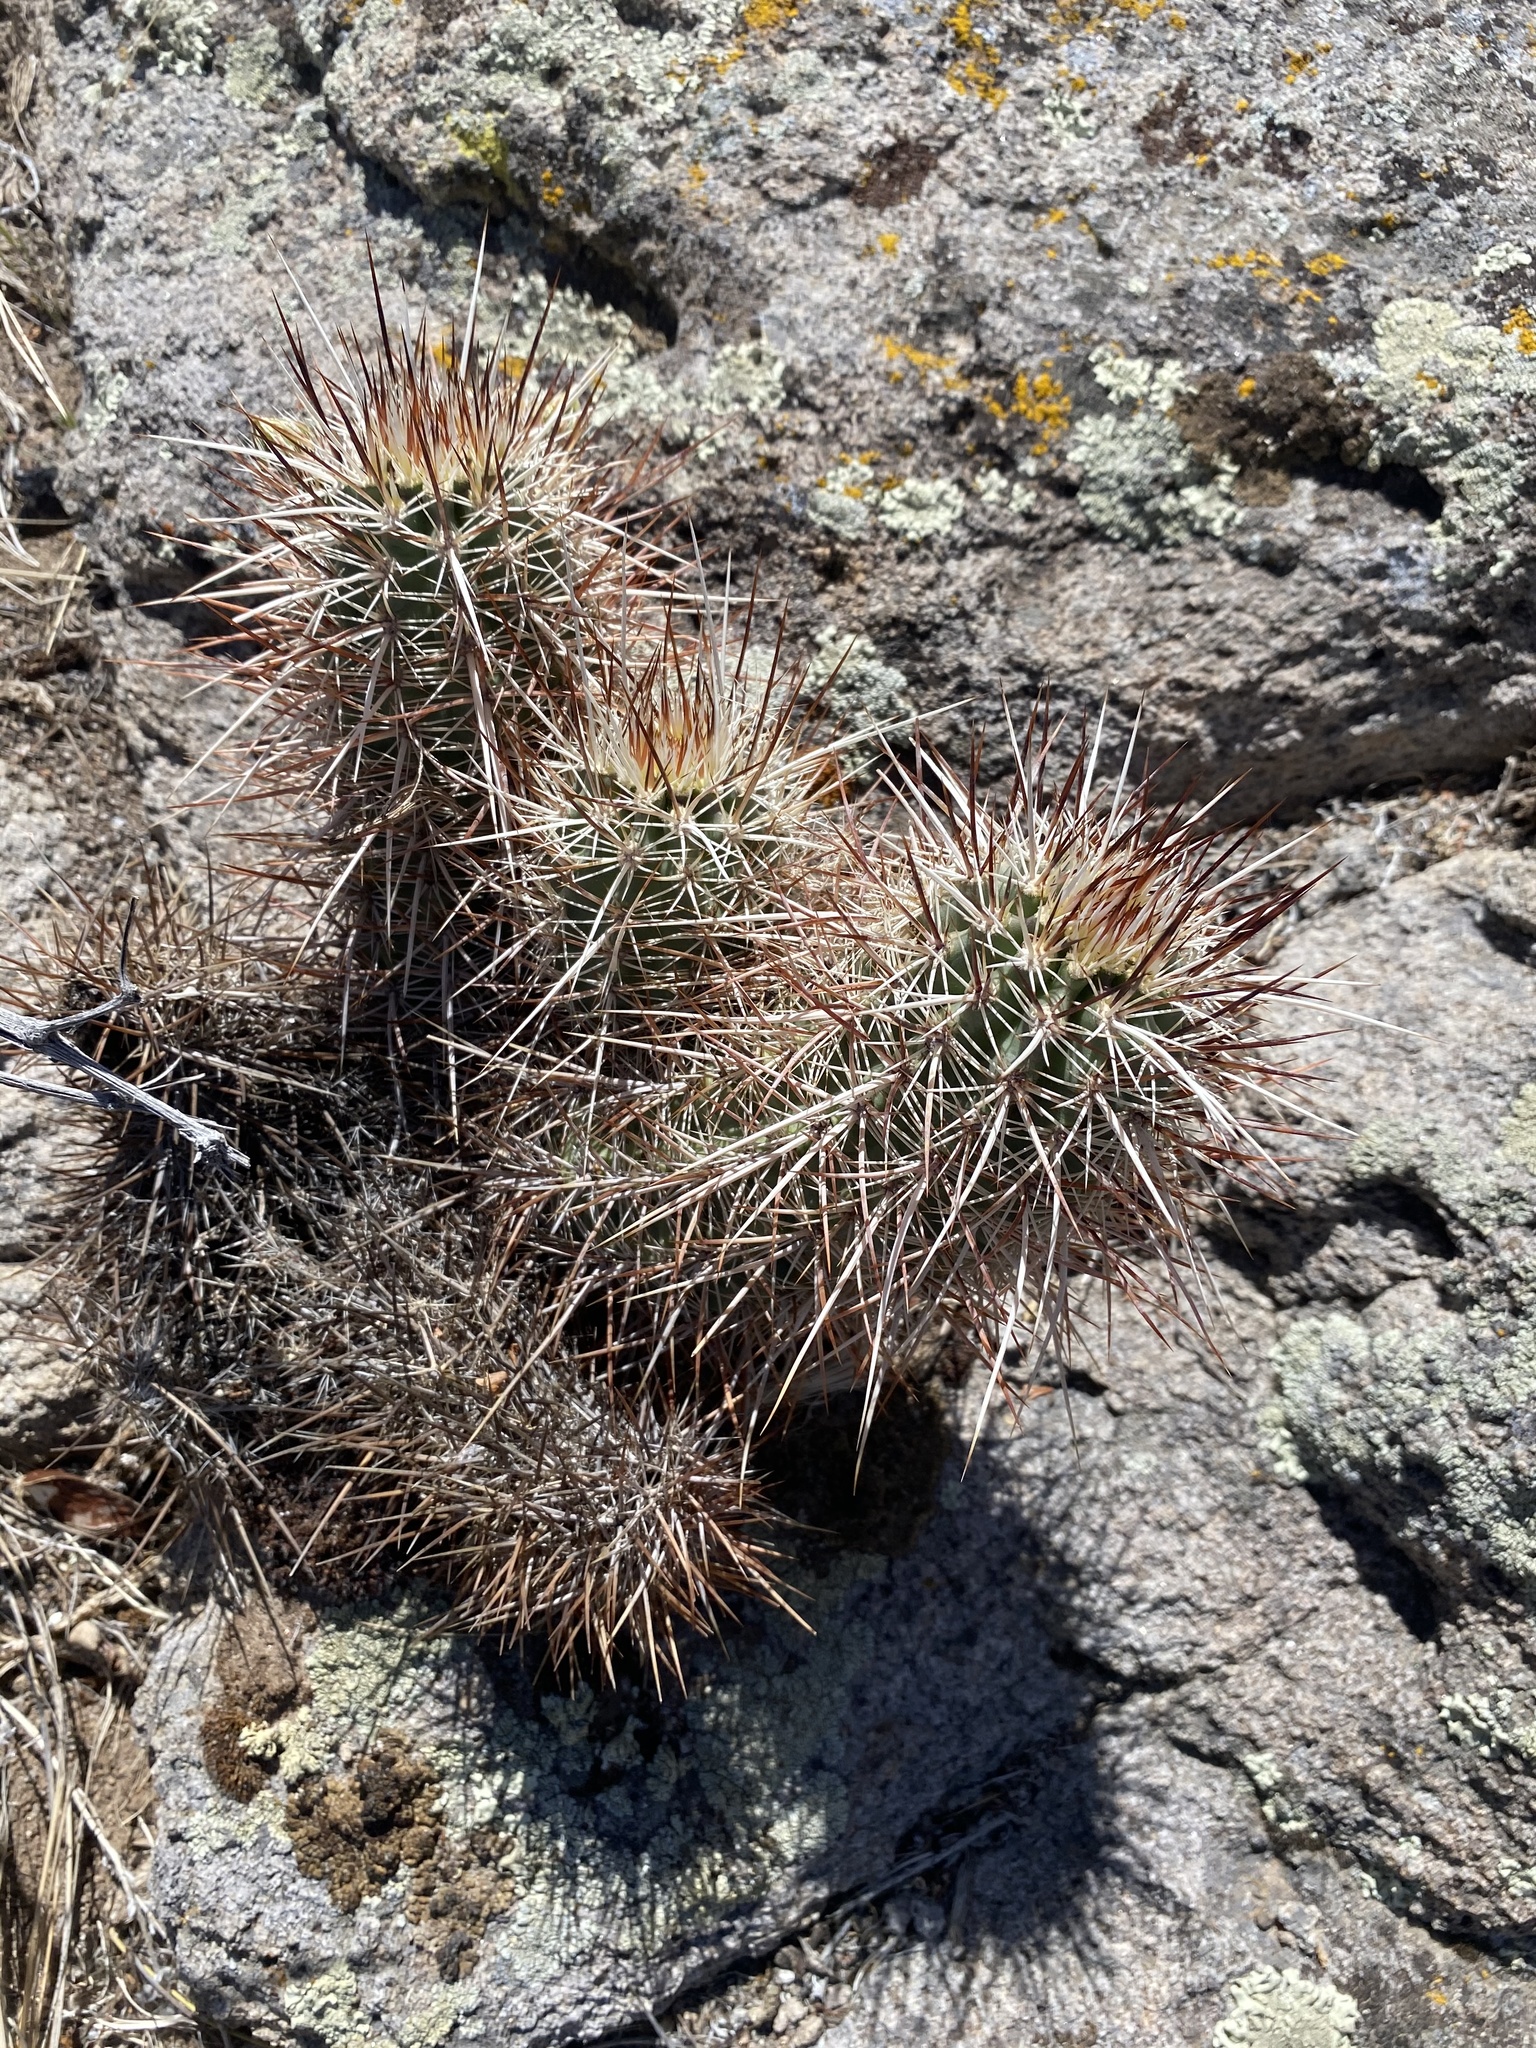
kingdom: Plantae
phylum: Tracheophyta
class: Magnoliopsida
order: Caryophyllales
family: Cactaceae
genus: Echinocereus
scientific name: Echinocereus engelmannii
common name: Engelmann's hedgehog cactus
